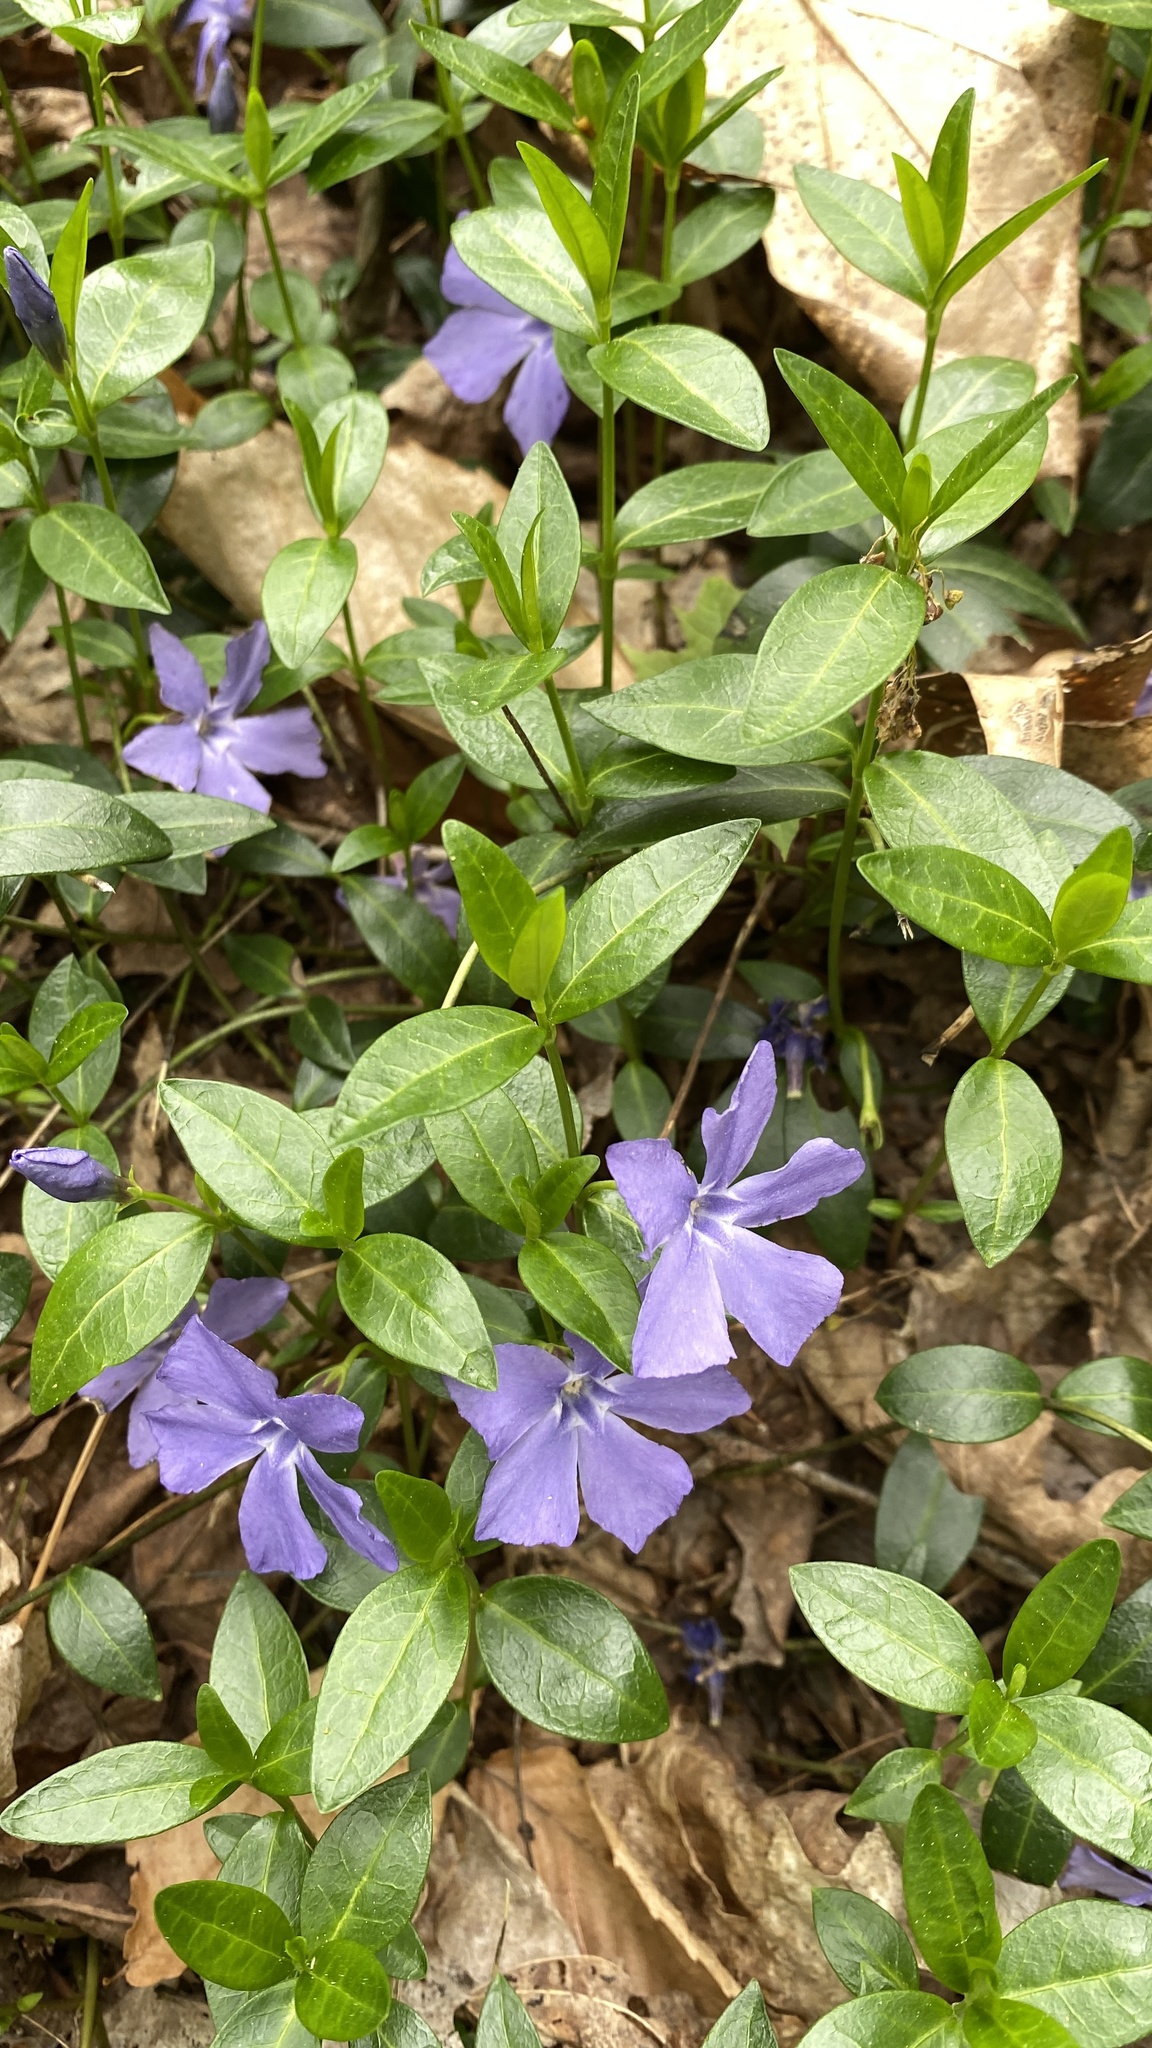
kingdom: Plantae
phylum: Tracheophyta
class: Magnoliopsida
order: Gentianales
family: Apocynaceae
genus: Vinca
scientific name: Vinca minor
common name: Lesser periwinkle
